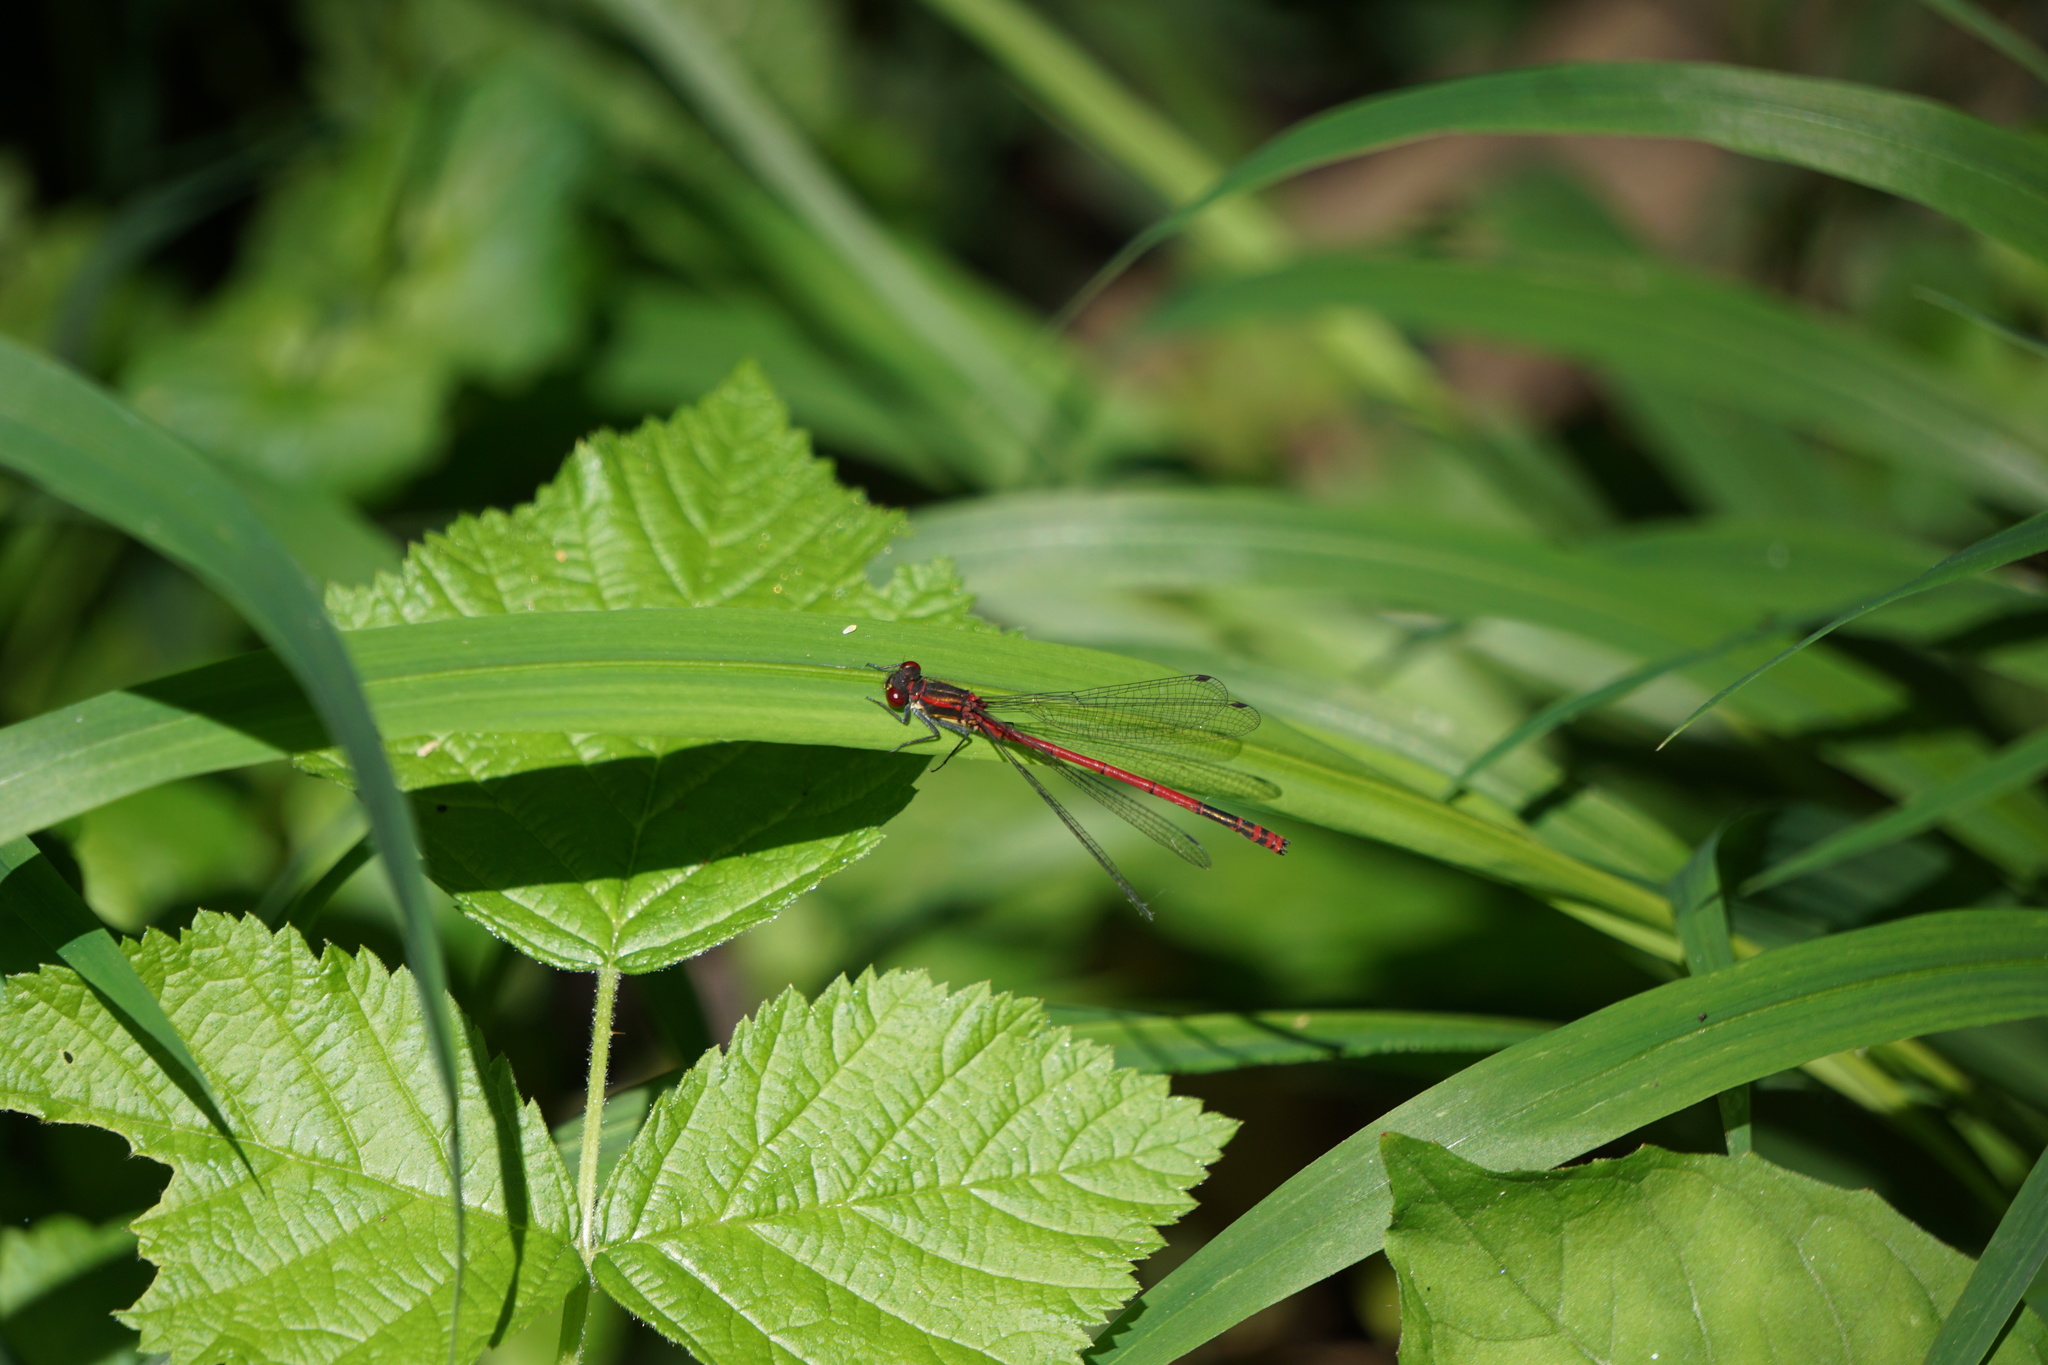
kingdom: Animalia
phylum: Arthropoda
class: Insecta
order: Odonata
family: Coenagrionidae
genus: Pyrrhosoma
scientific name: Pyrrhosoma nymphula
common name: Large red damsel
